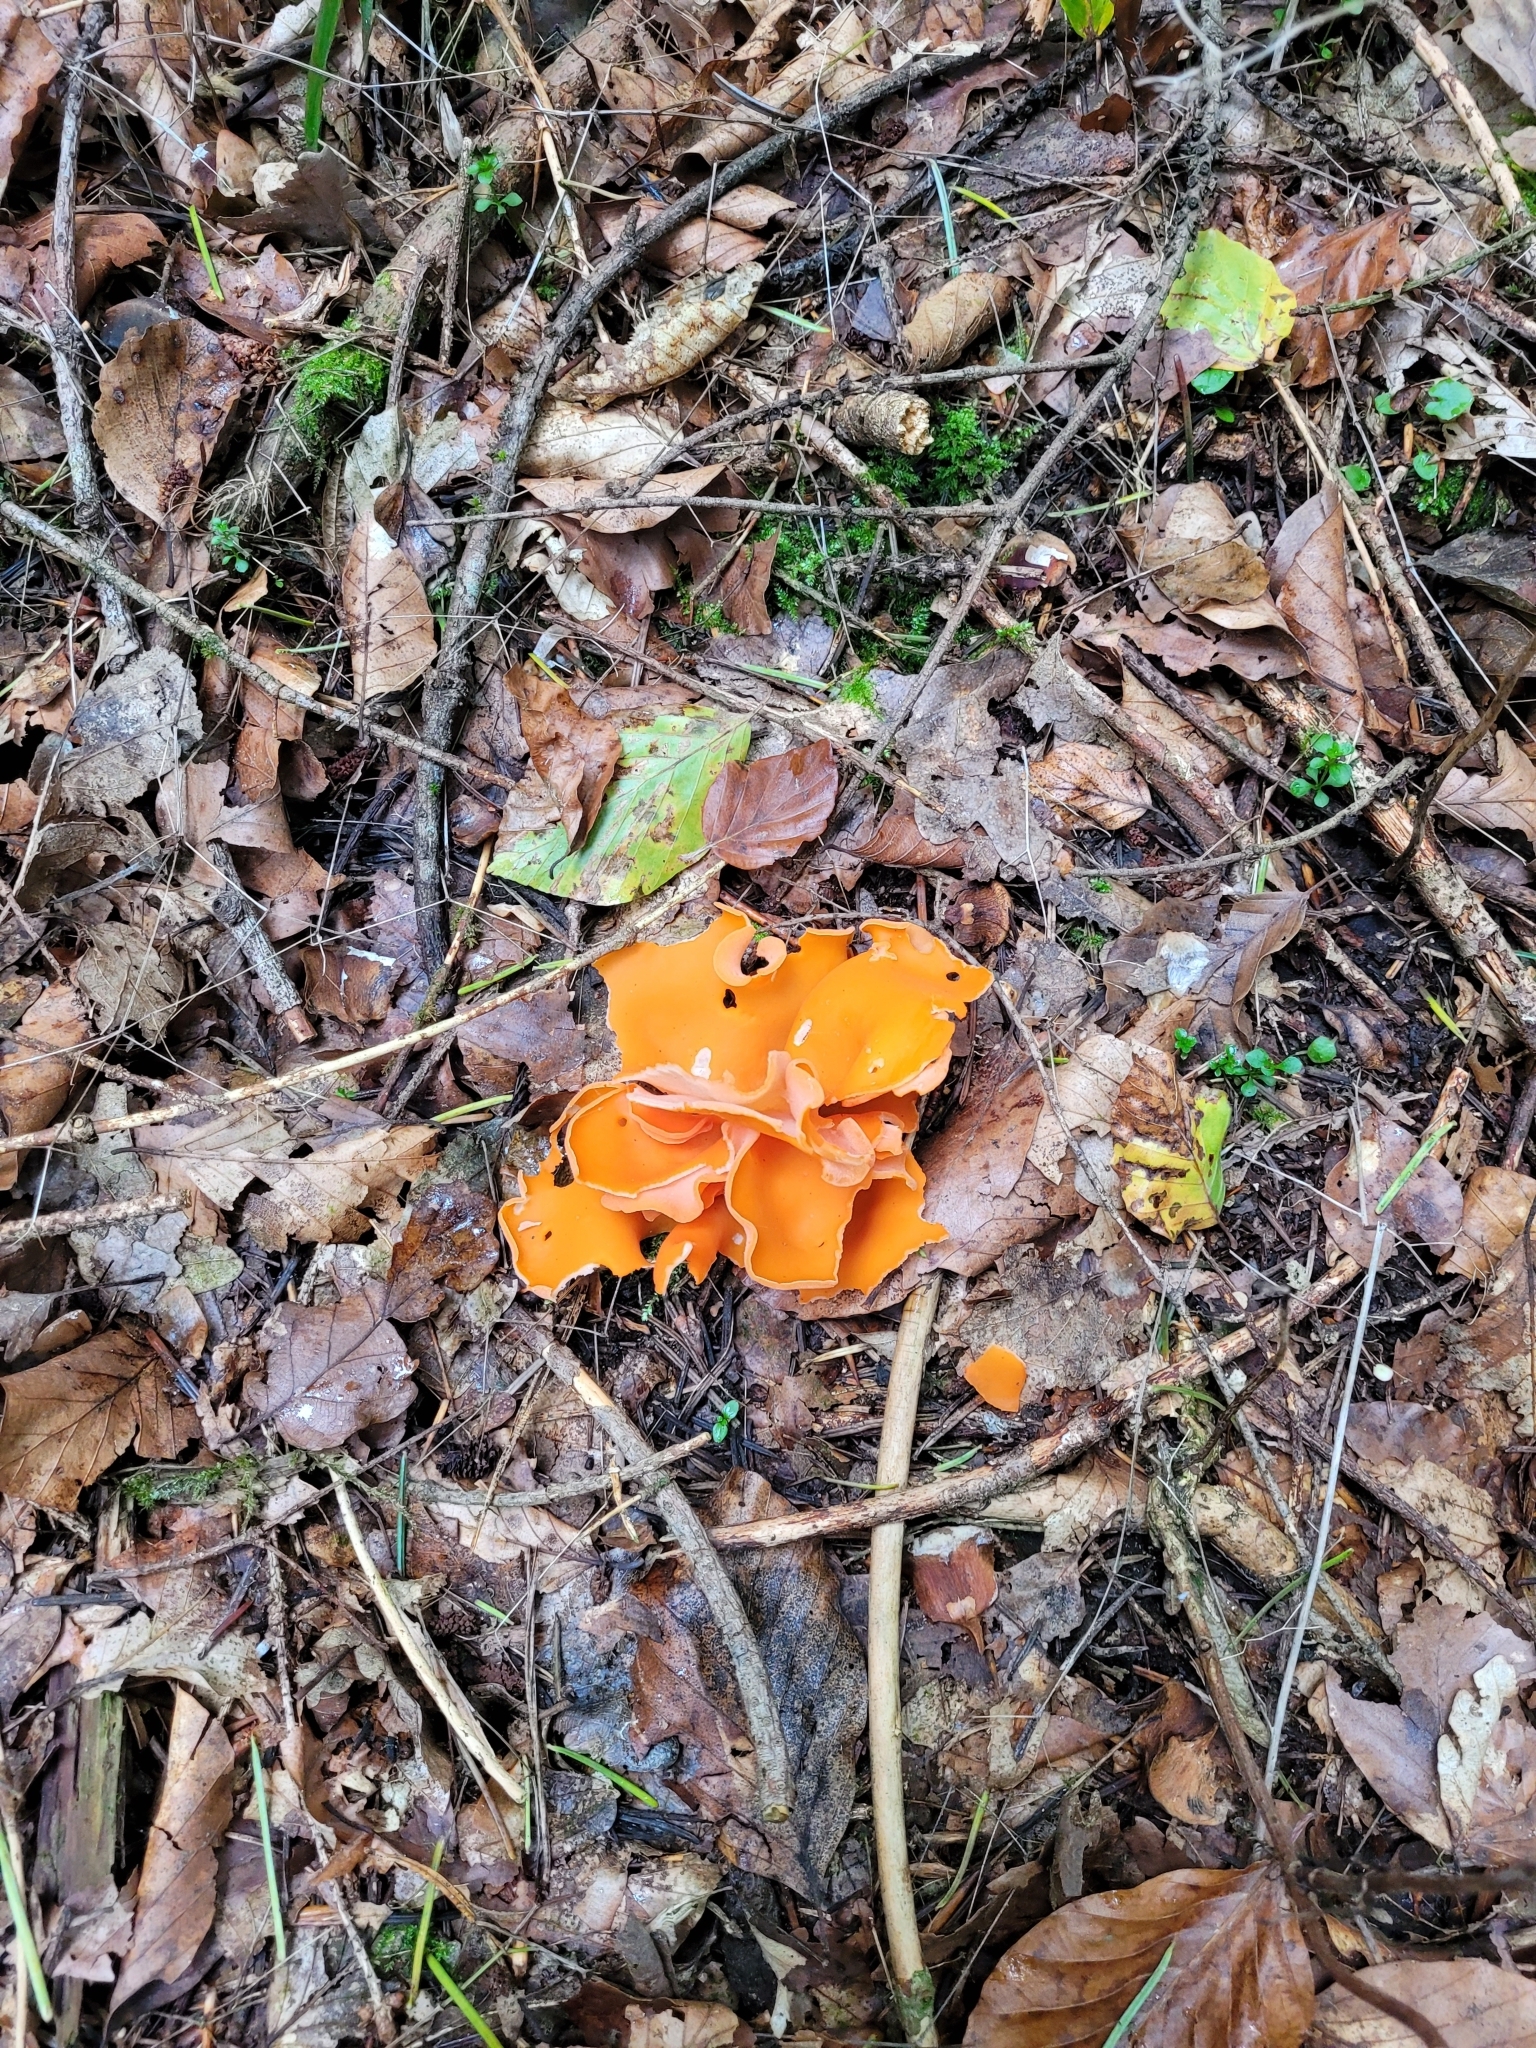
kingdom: Fungi
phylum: Ascomycota
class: Pezizomycetes
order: Pezizales
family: Pyronemataceae
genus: Aleuria
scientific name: Aleuria aurantia
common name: Orange peel fungus
